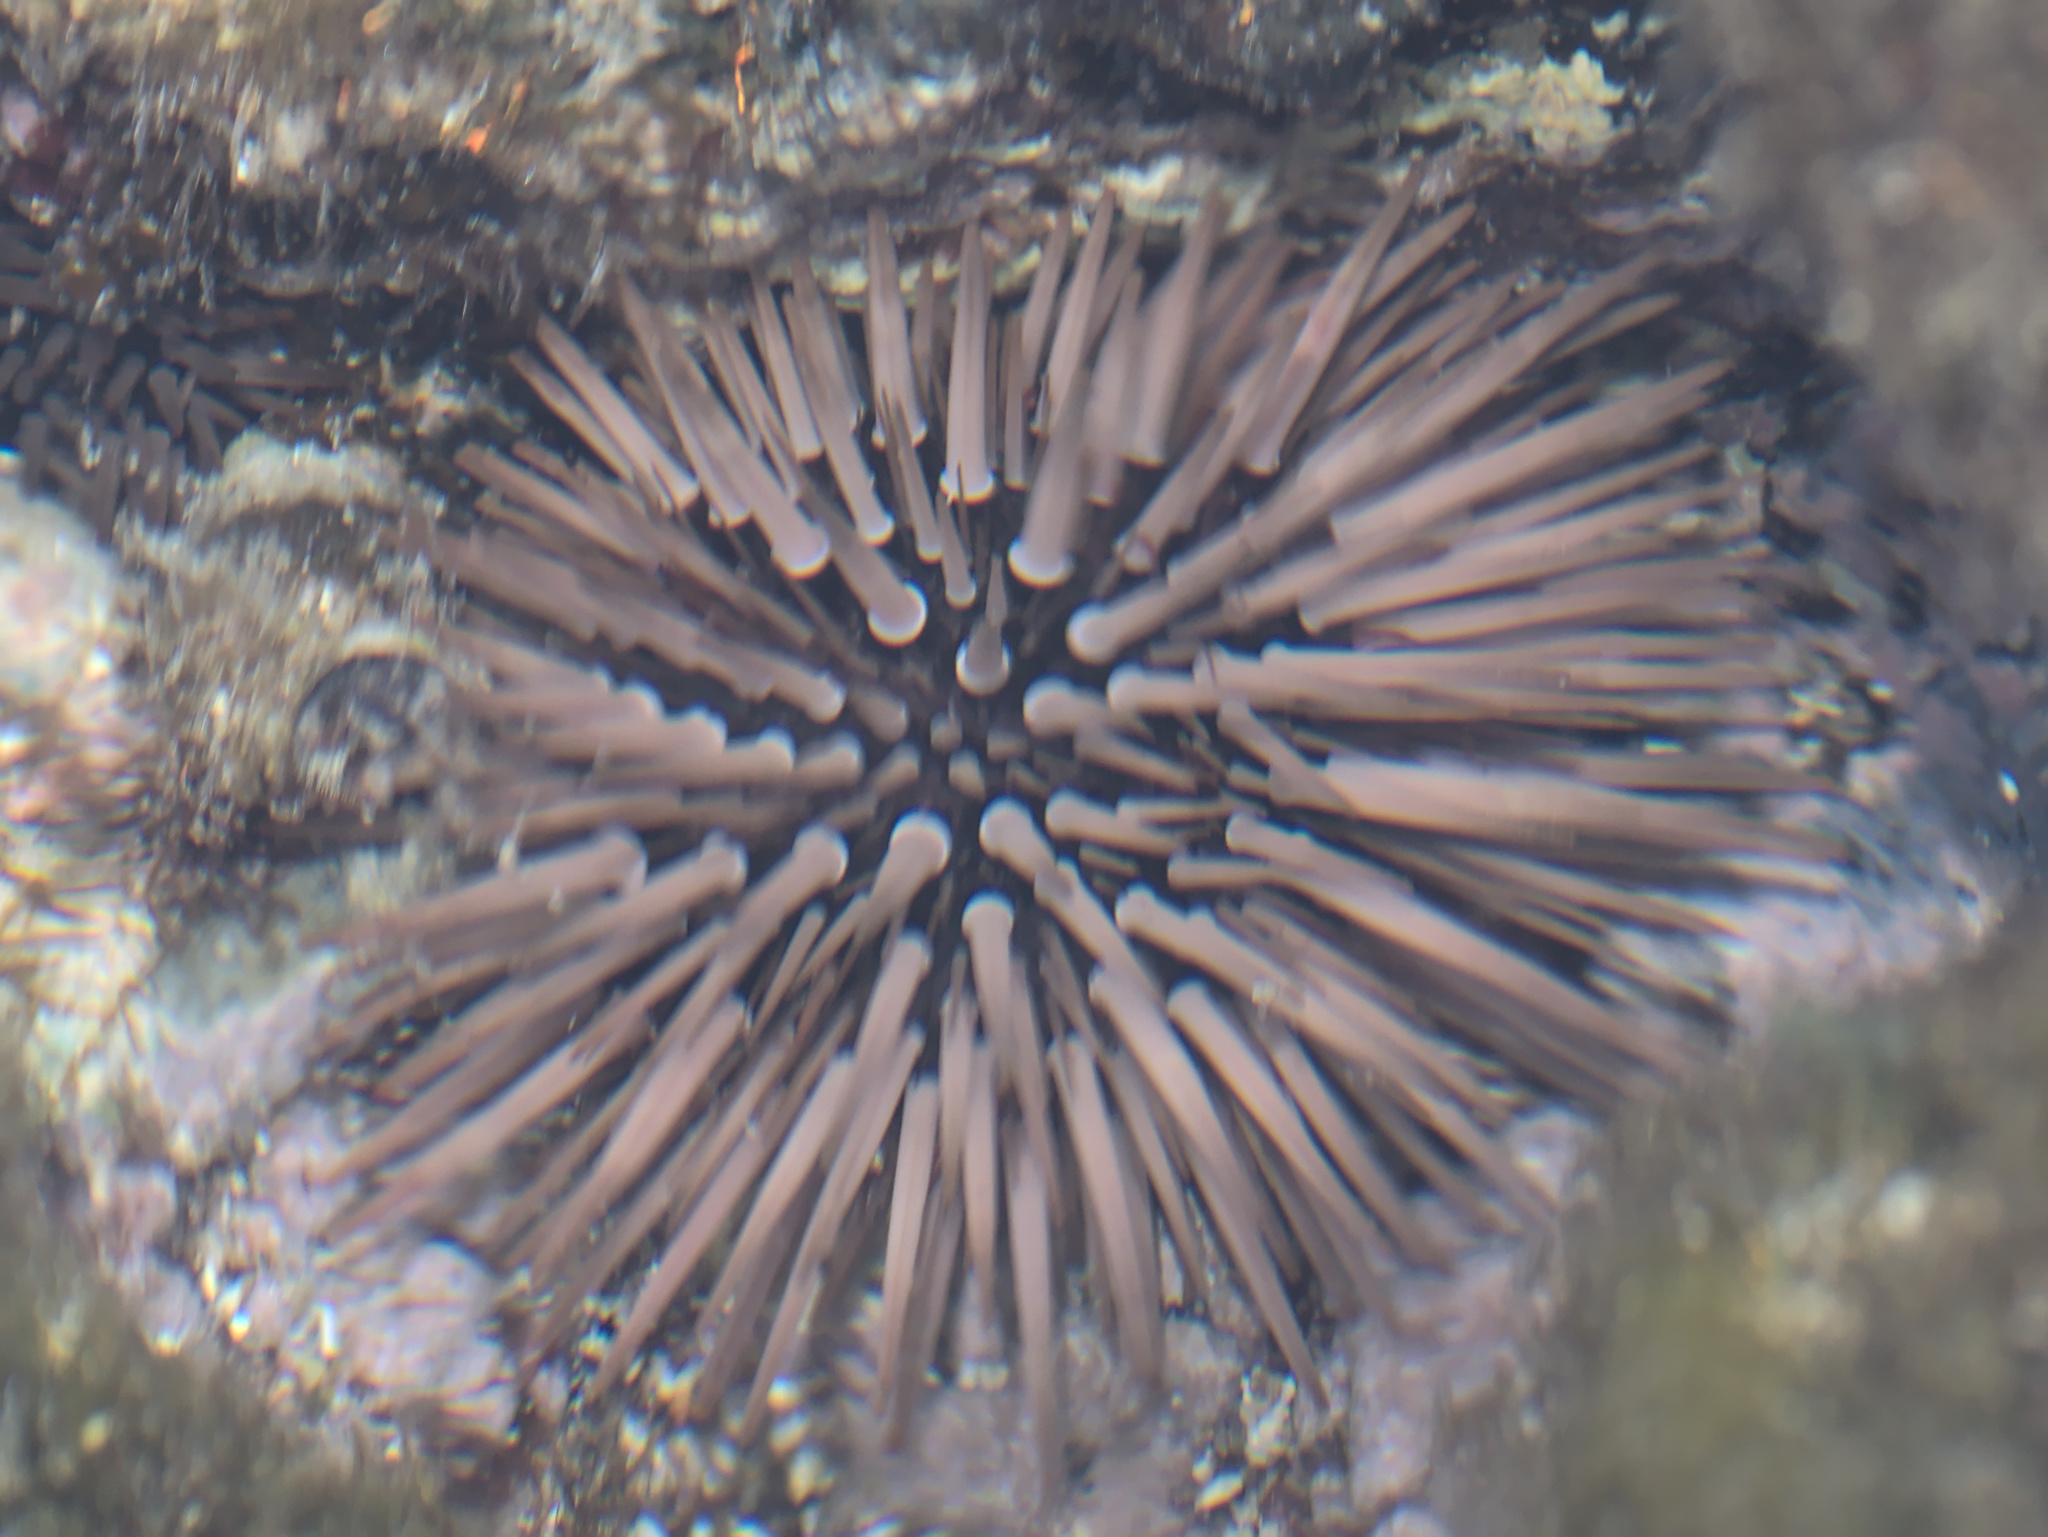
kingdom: Animalia
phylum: Echinodermata
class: Echinoidea
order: Camarodonta
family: Echinometridae
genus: Echinometra
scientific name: Echinometra mathaei
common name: Rock-boring urchin
